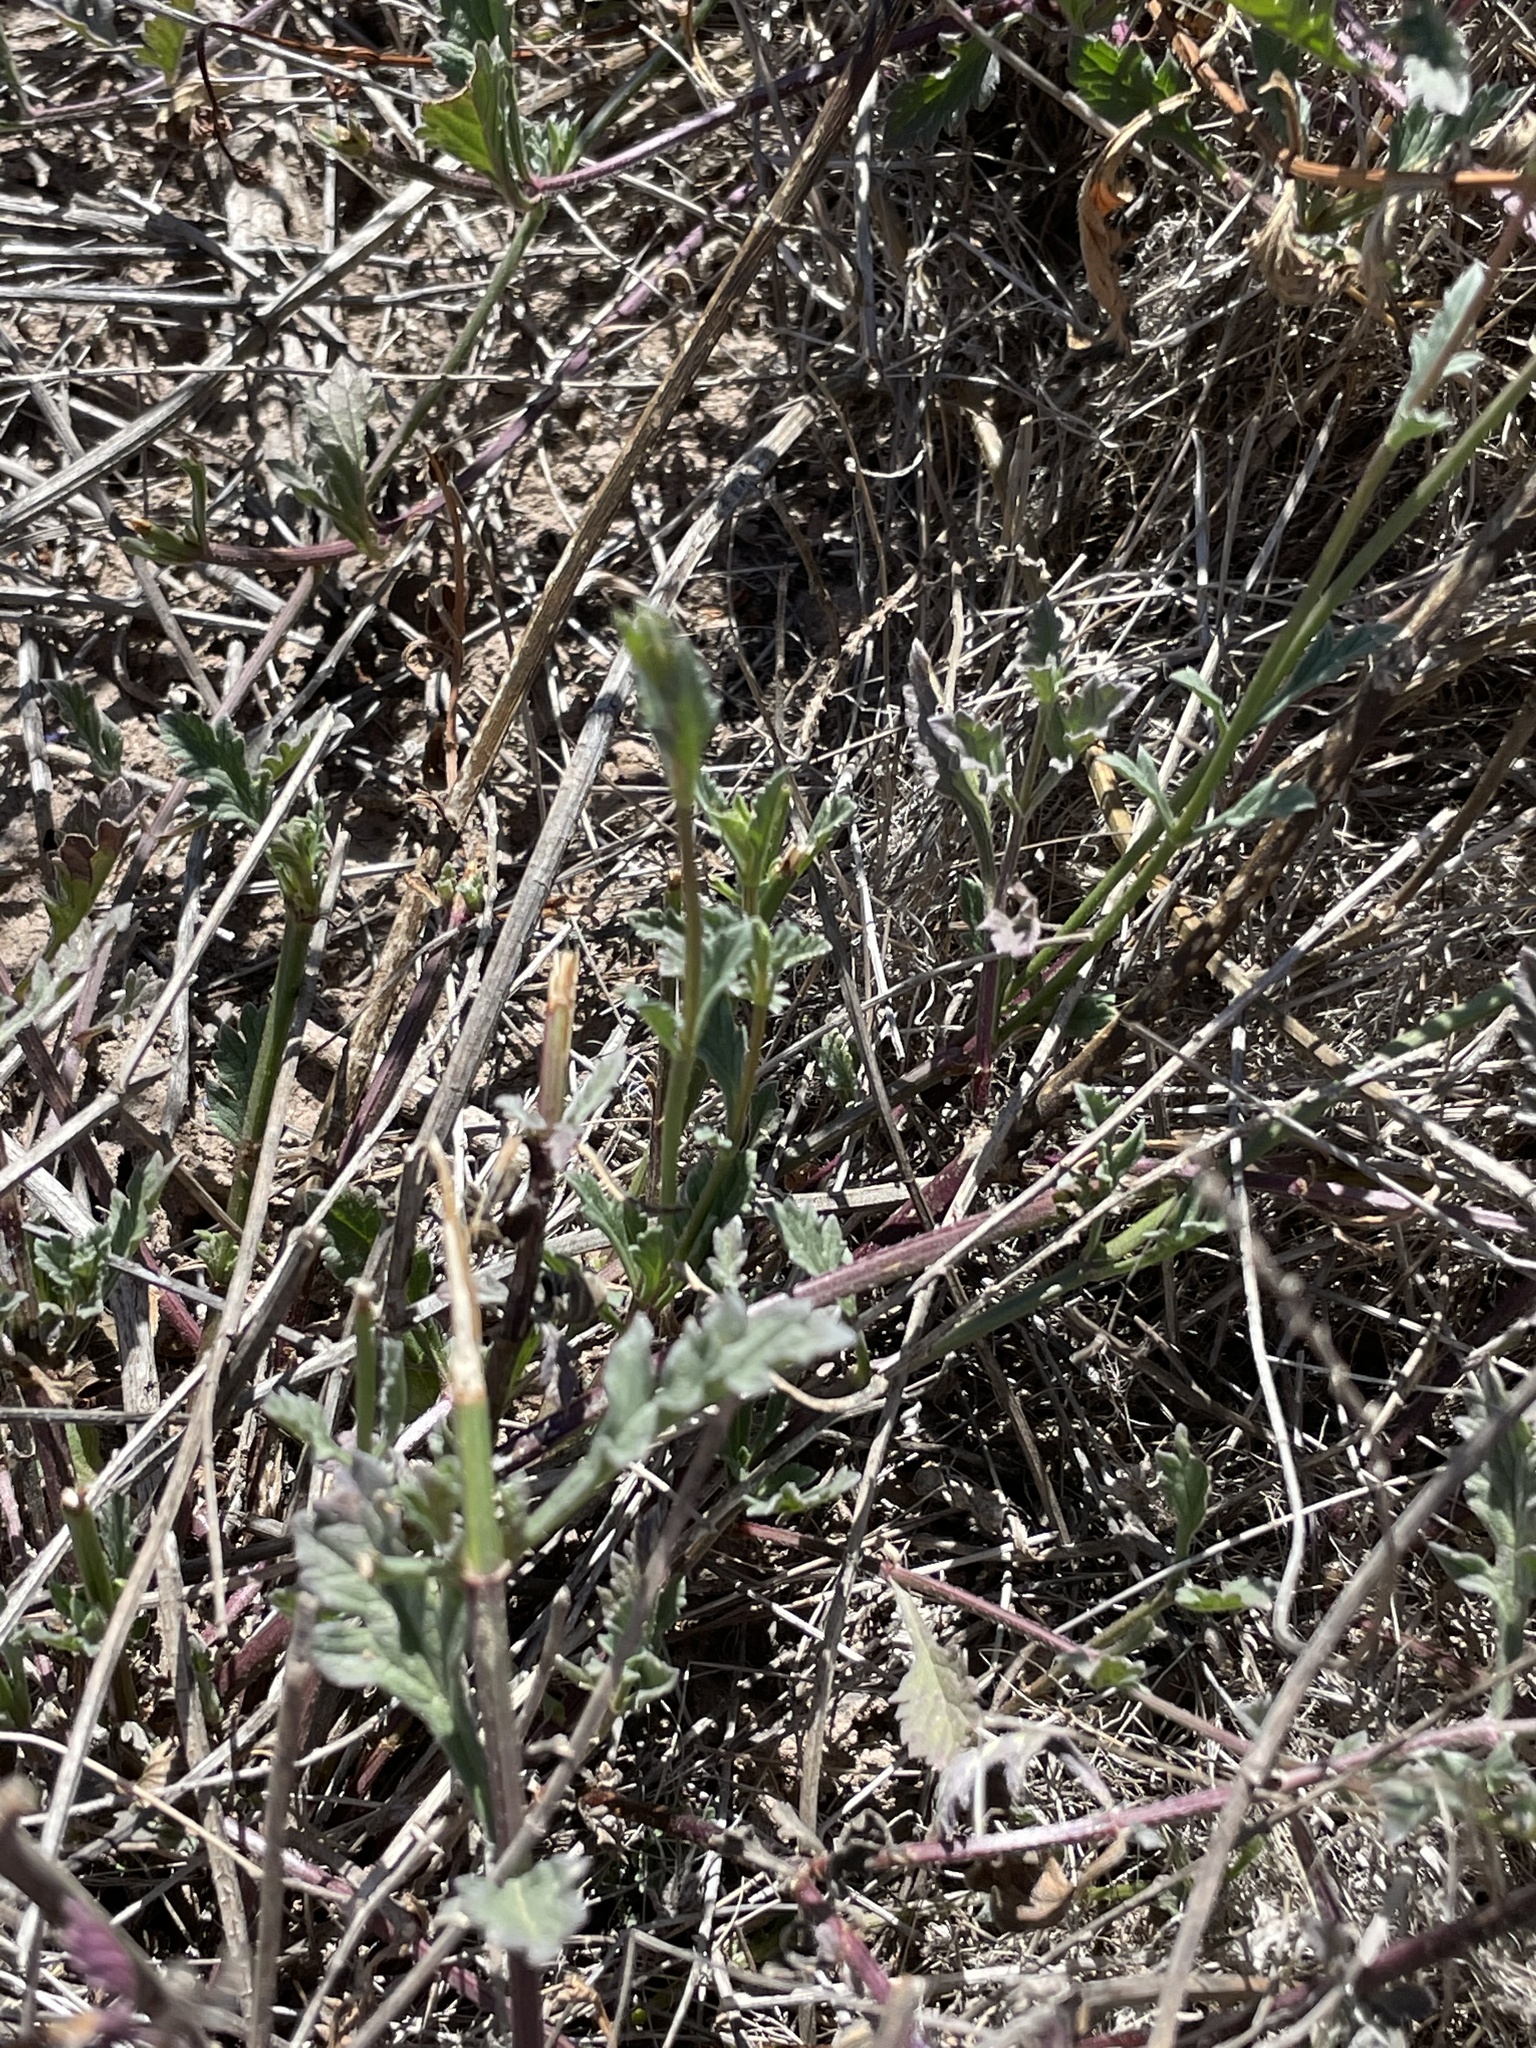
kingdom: Plantae
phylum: Tracheophyta
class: Magnoliopsida
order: Lamiales
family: Verbenaceae
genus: Verbena
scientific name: Verbena menthifolia
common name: Mint-leaf vervain
